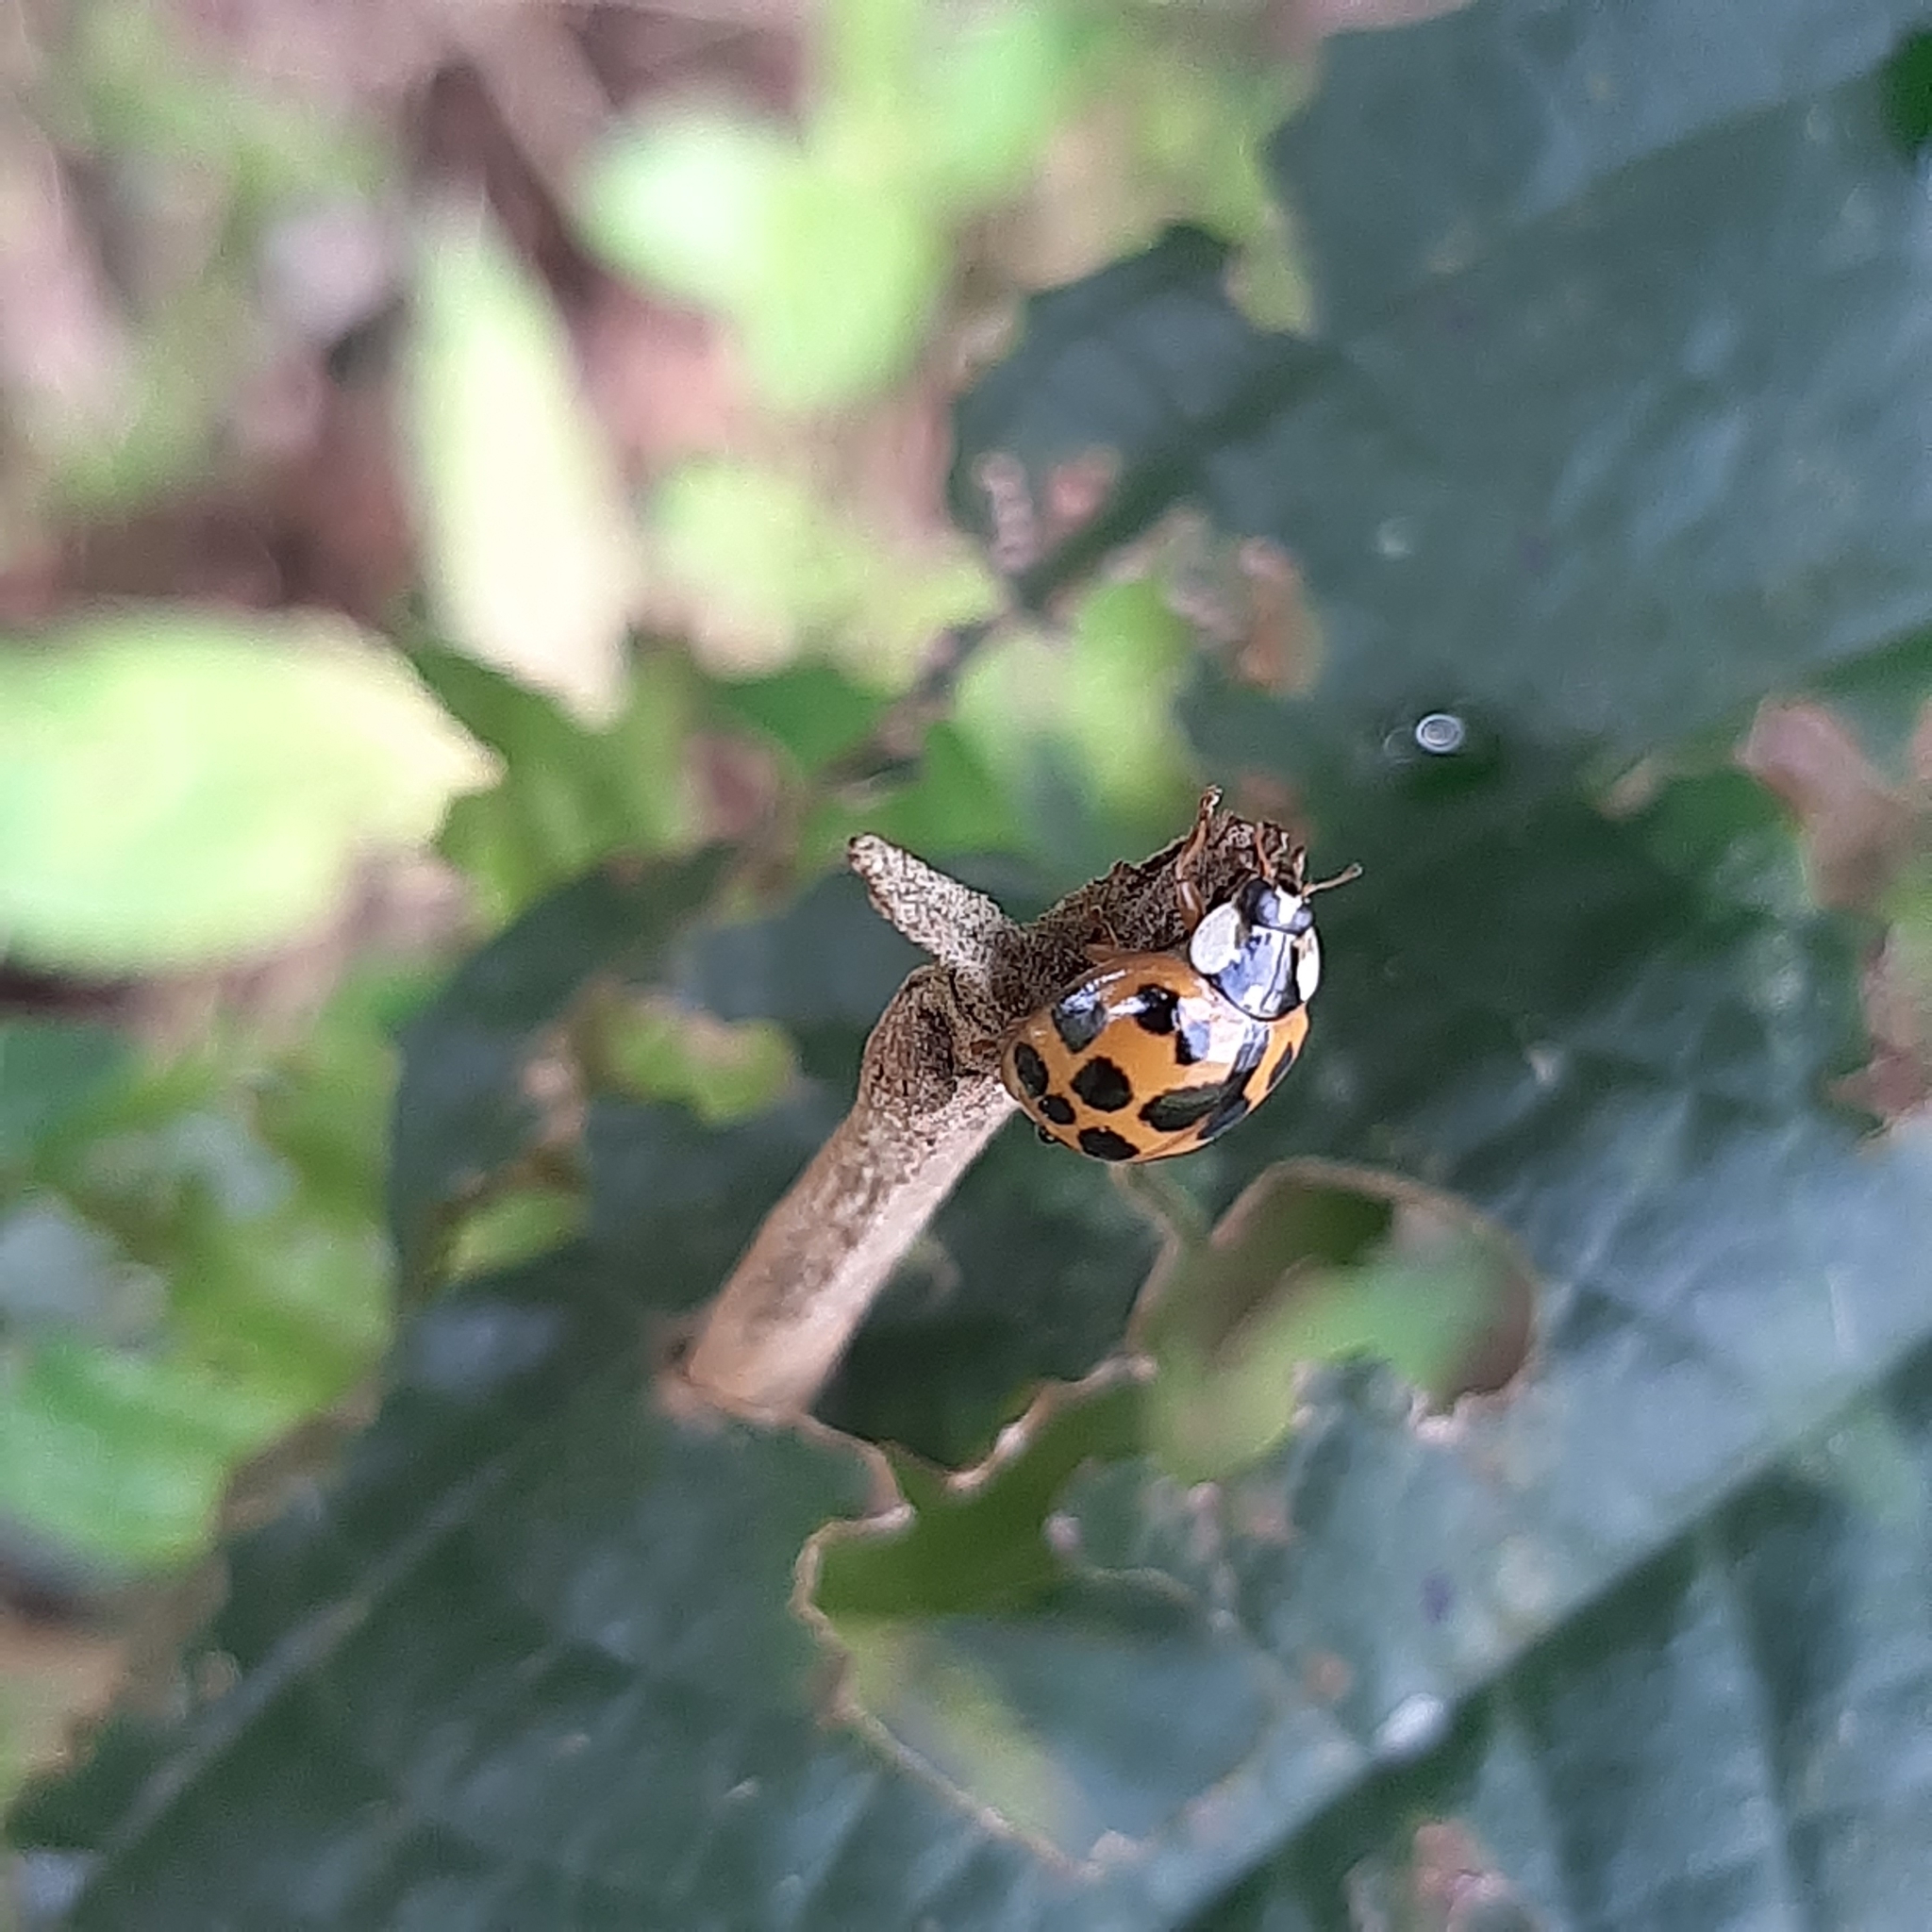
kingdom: Animalia
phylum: Arthropoda
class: Insecta
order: Coleoptera
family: Coccinellidae
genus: Harmonia
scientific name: Harmonia axyridis
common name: Harlequin ladybird
